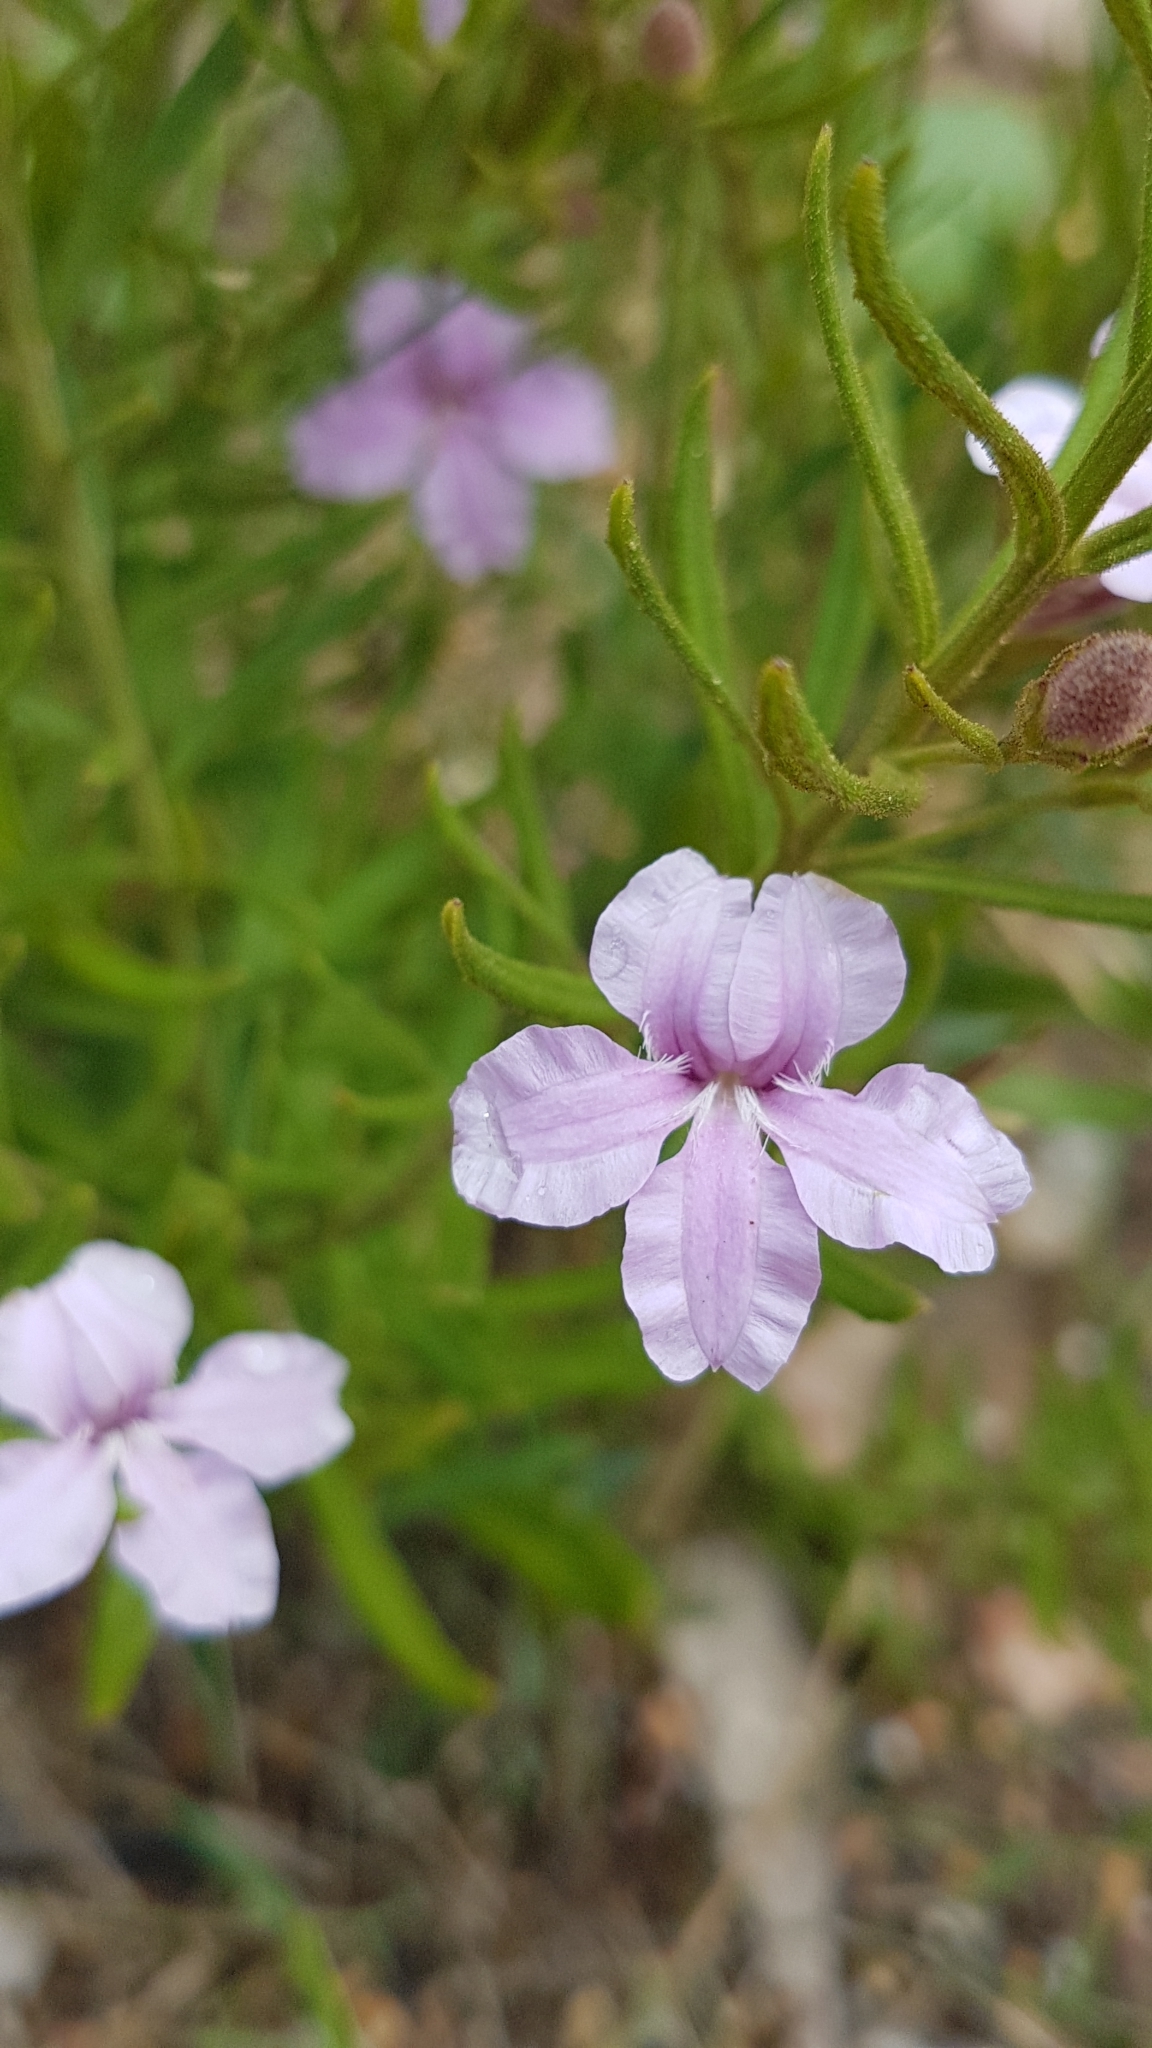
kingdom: Plantae
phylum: Tracheophyta
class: Magnoliopsida
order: Asterales
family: Goodeniaceae
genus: Goodenia
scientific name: Goodenia barbata
